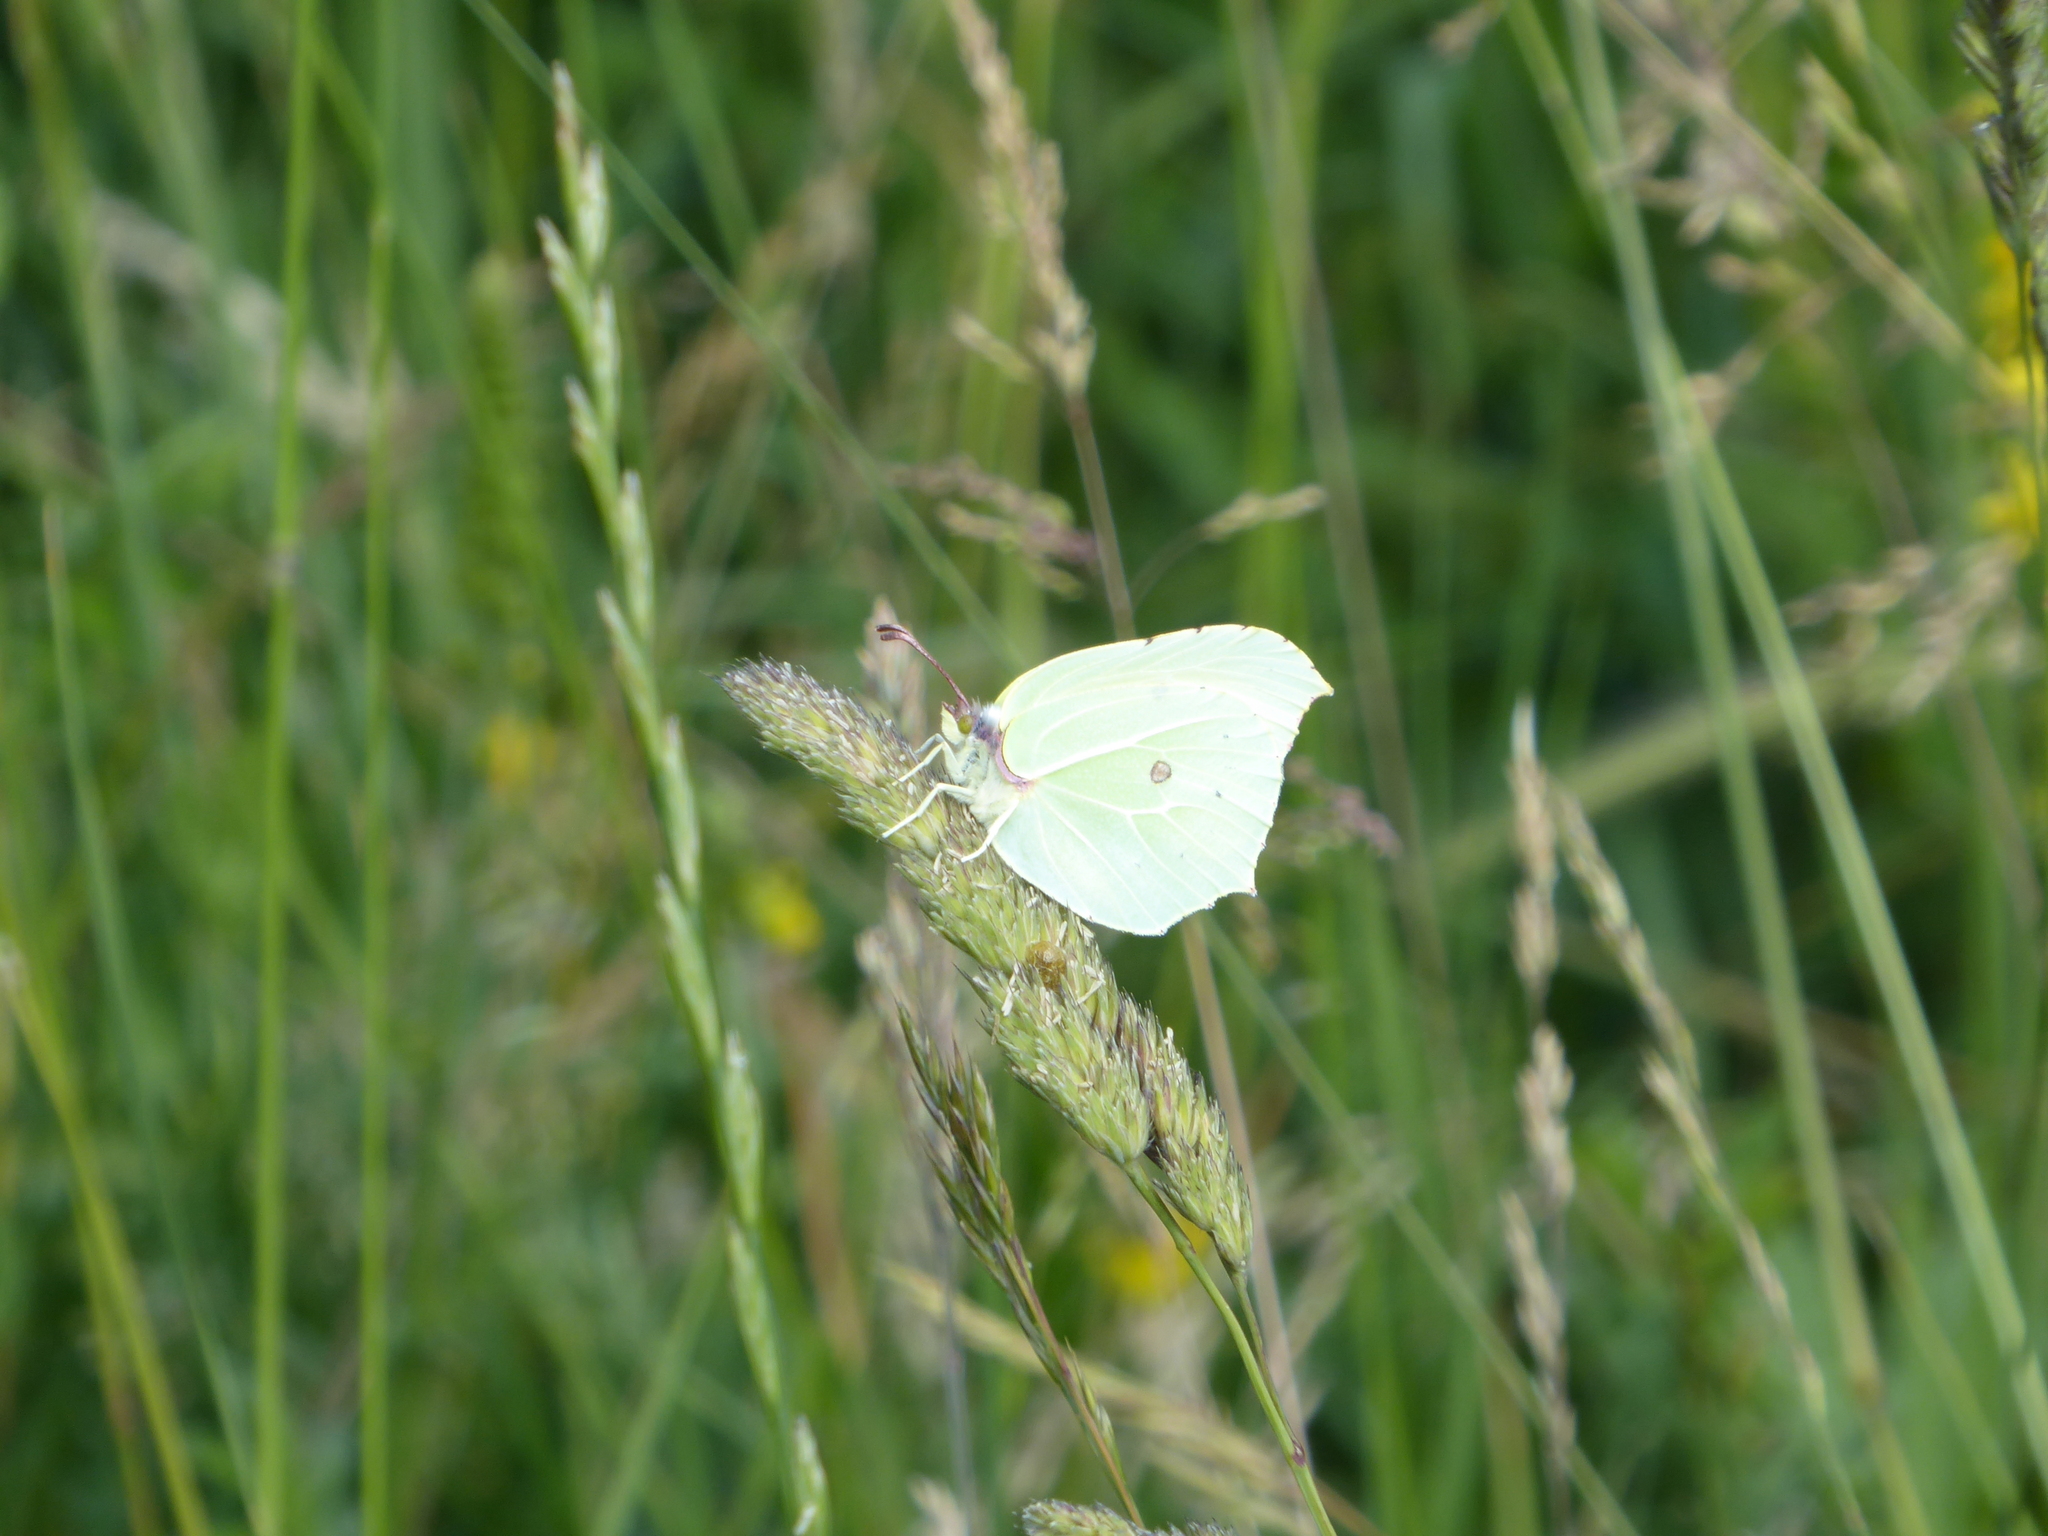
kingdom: Animalia
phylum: Arthropoda
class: Insecta
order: Lepidoptera
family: Pieridae
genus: Gonepteryx
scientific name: Gonepteryx rhamni
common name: Brimstone
